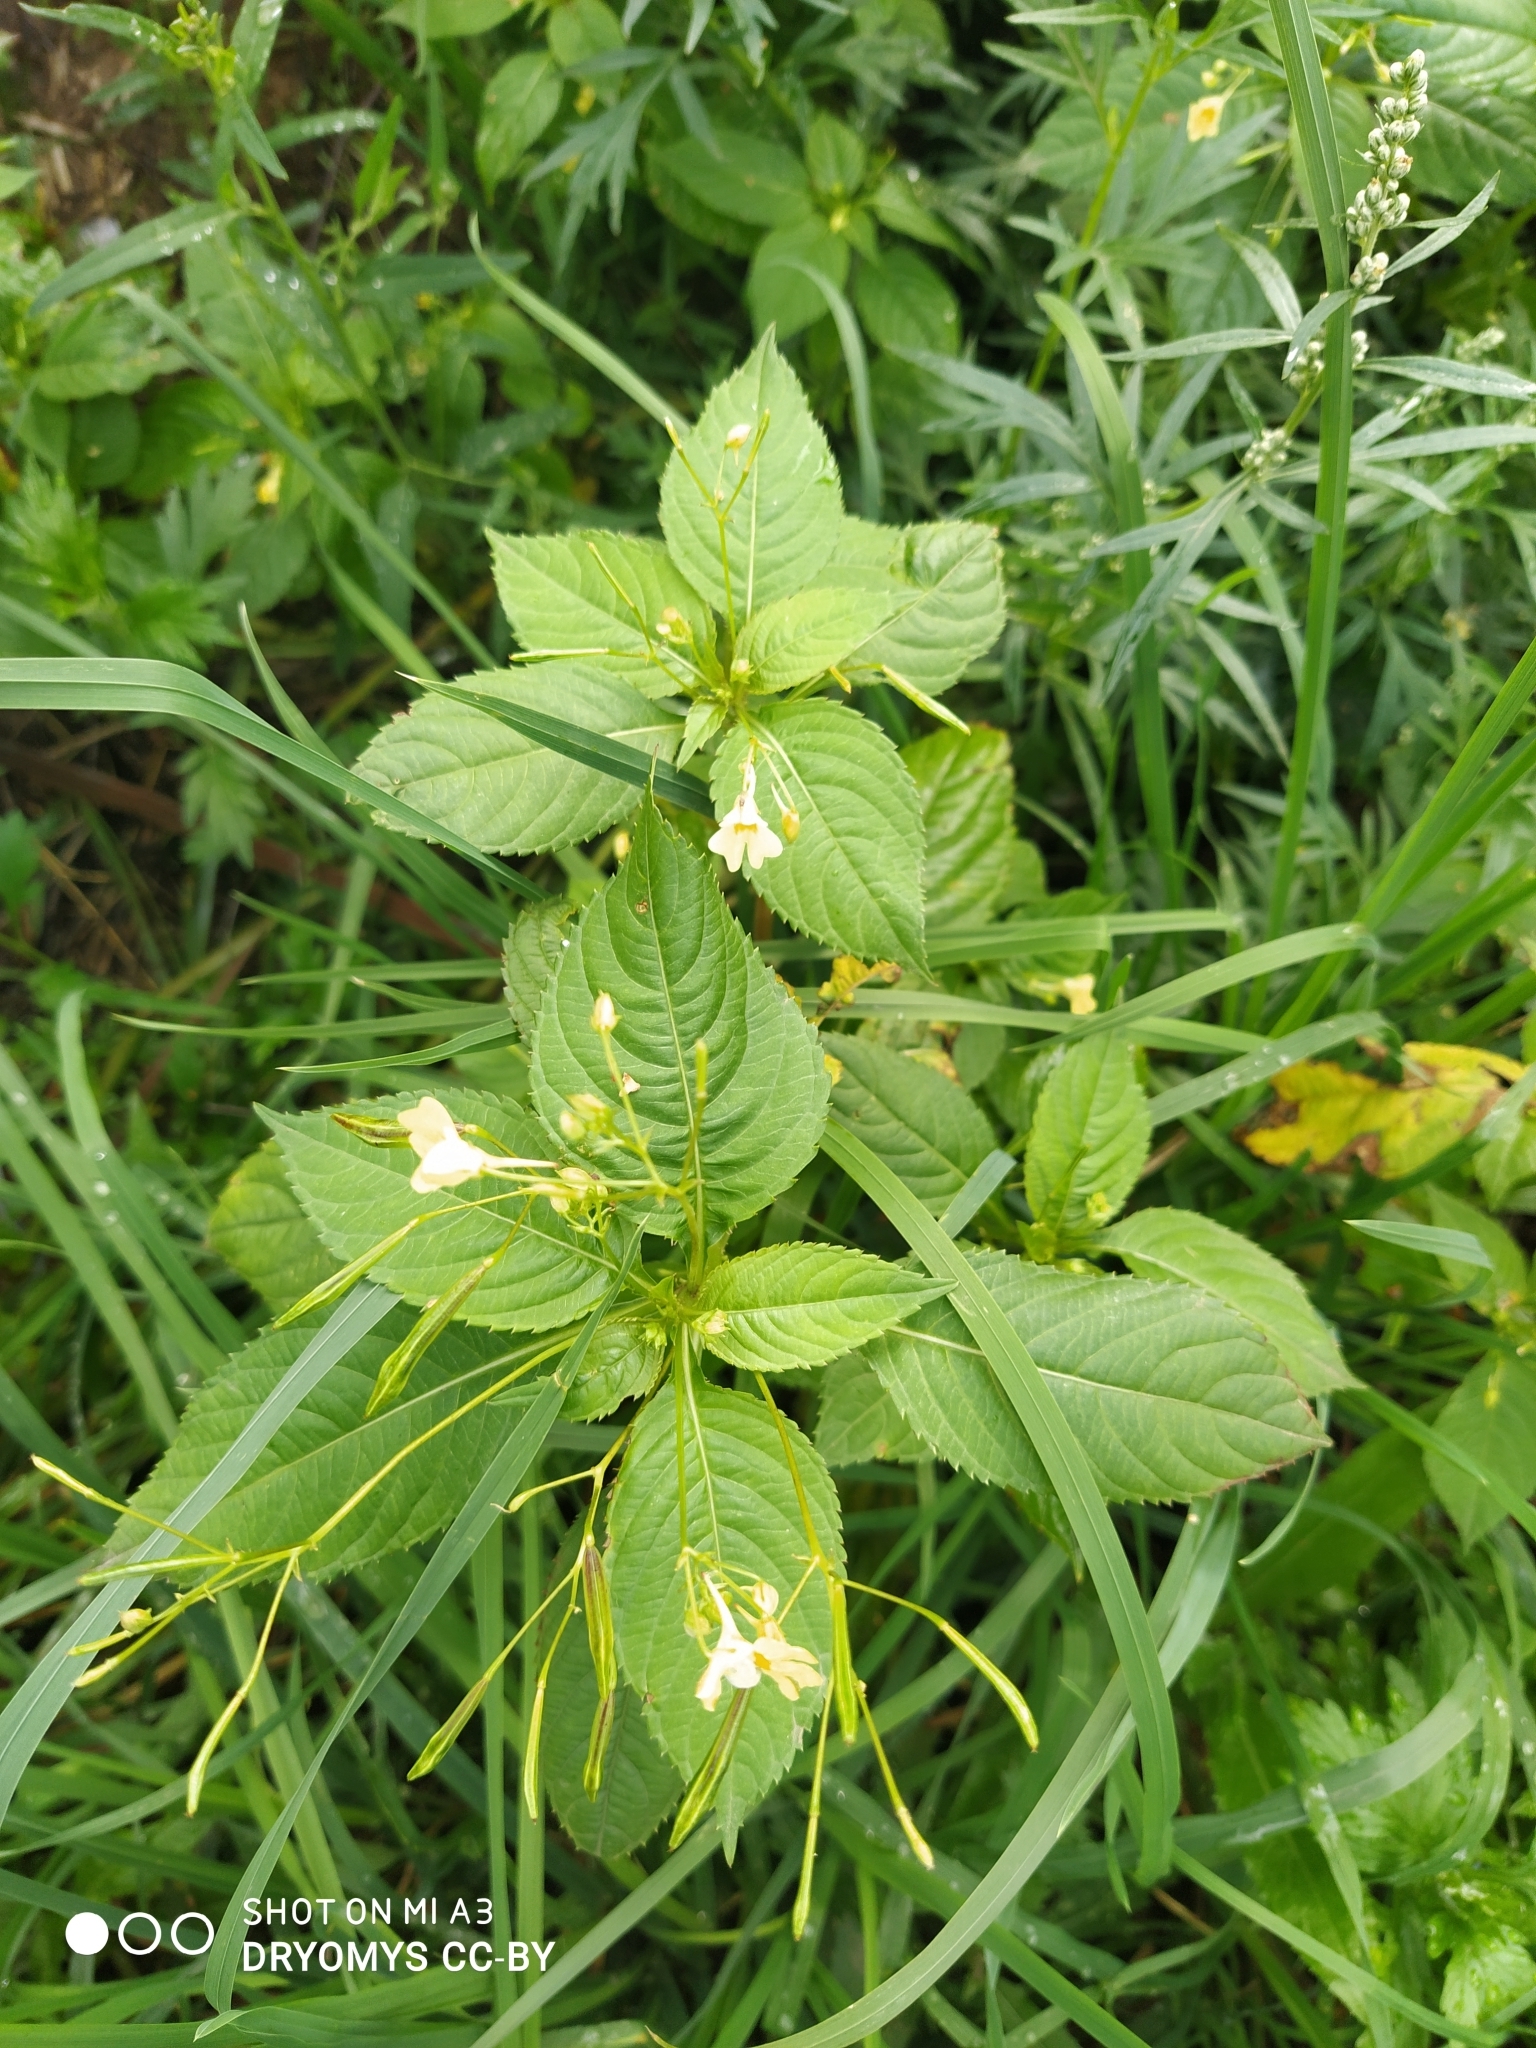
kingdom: Plantae
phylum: Tracheophyta
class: Magnoliopsida
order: Ericales
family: Balsaminaceae
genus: Impatiens
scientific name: Impatiens parviflora
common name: Small balsam
